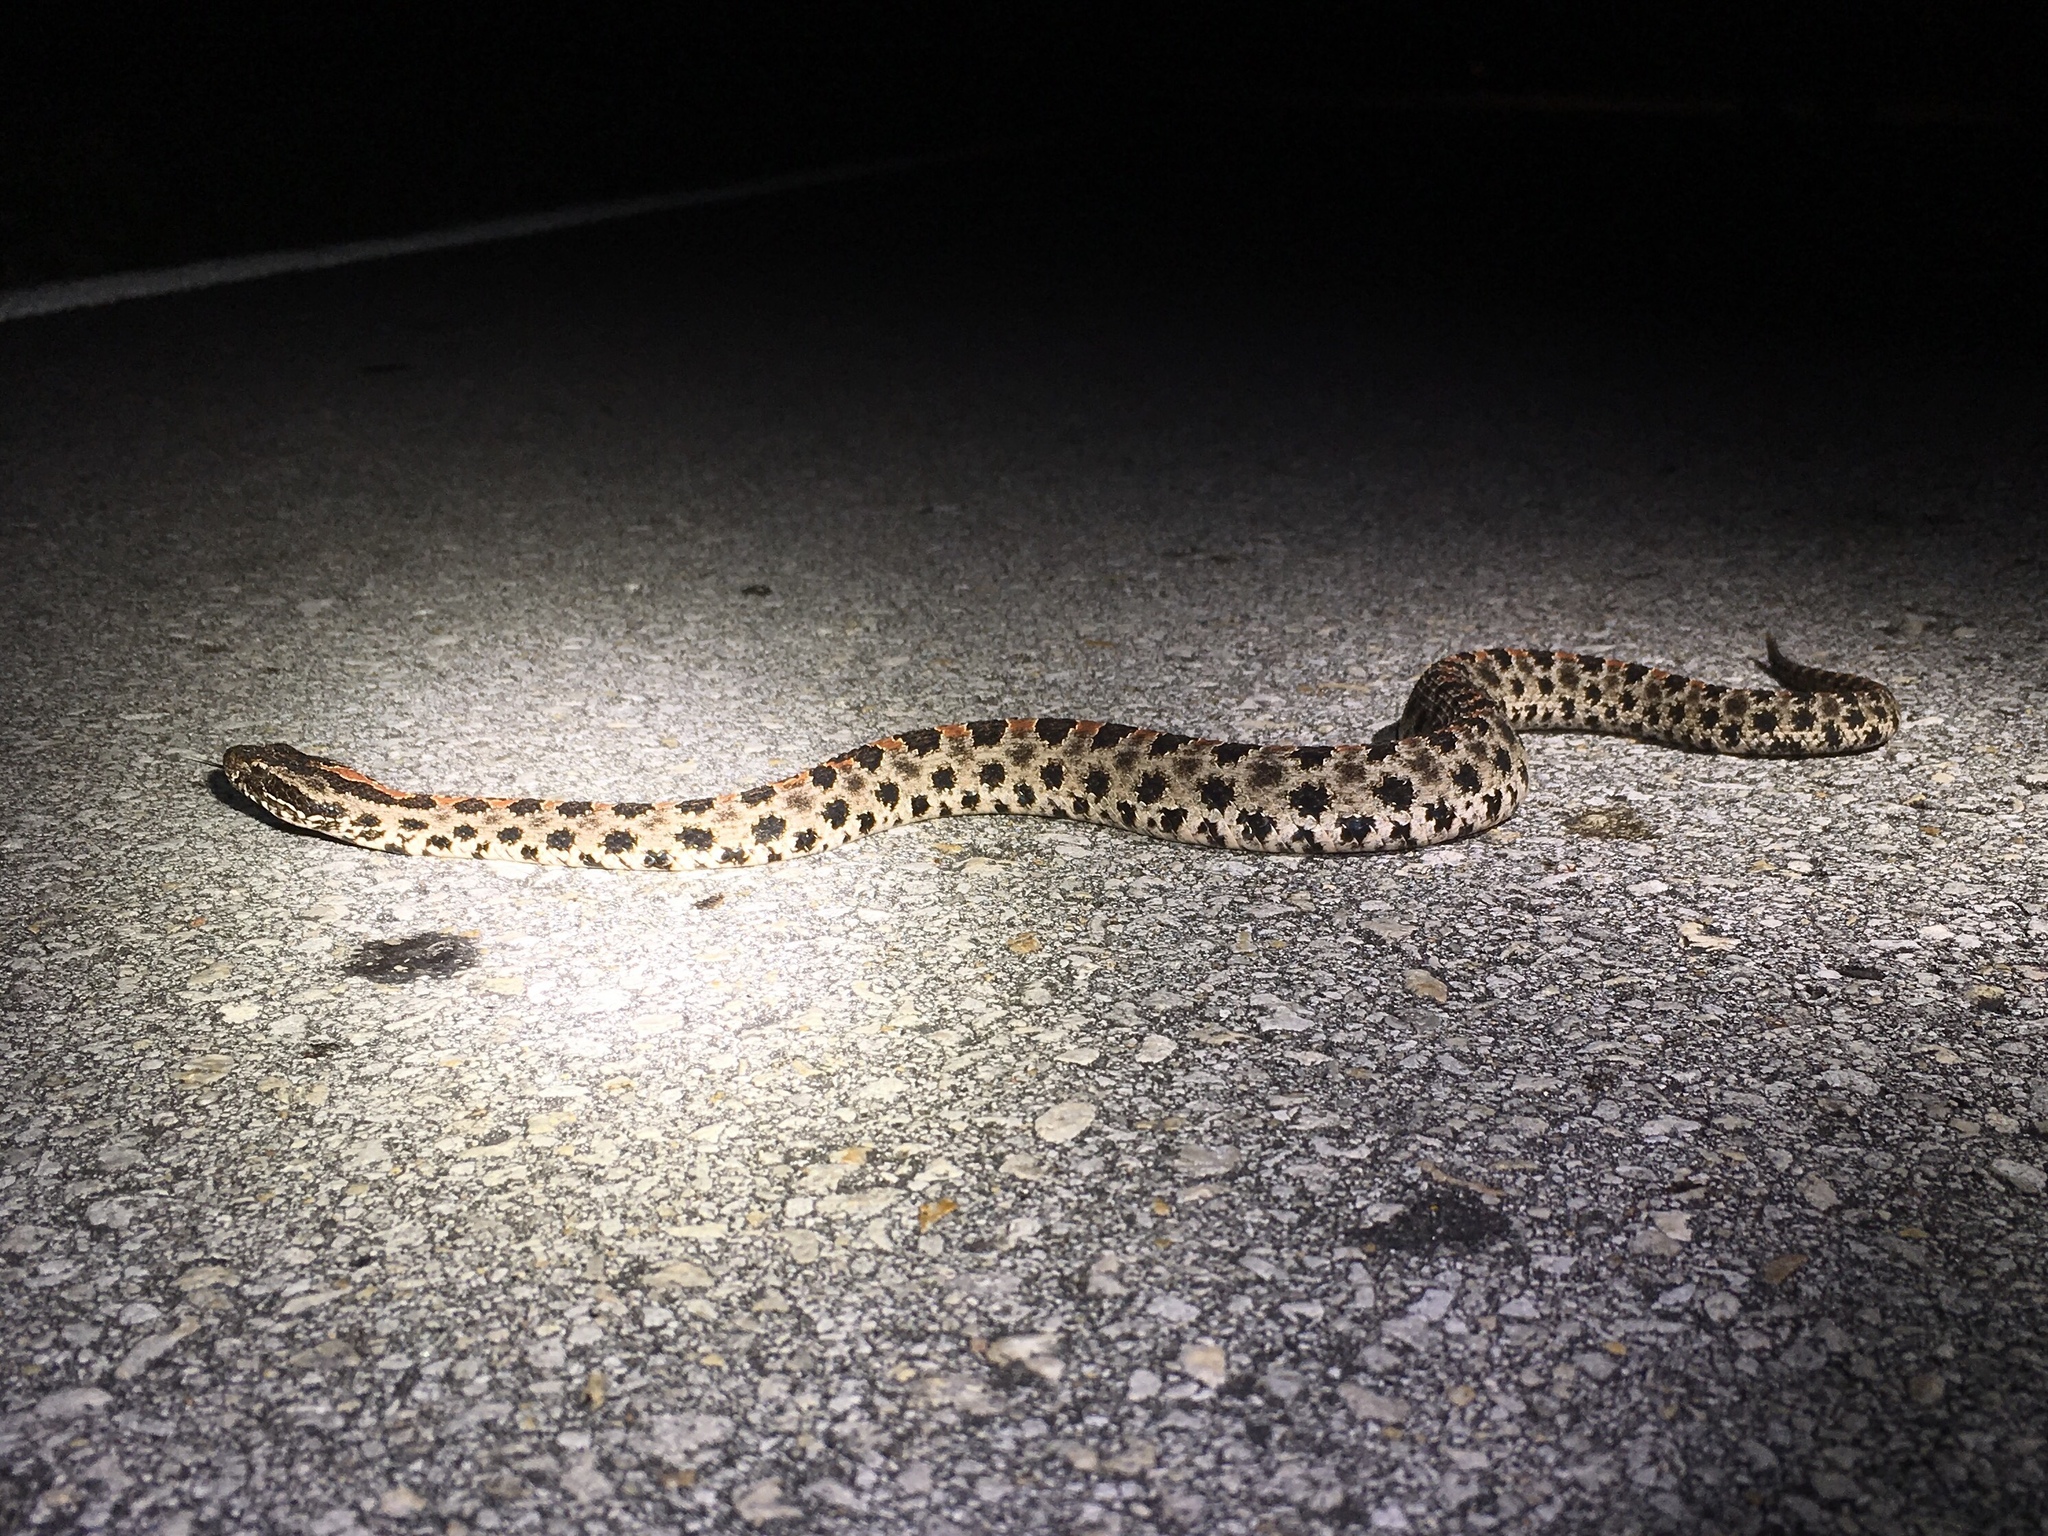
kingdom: Animalia
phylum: Chordata
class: Squamata
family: Viperidae
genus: Sistrurus
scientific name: Sistrurus miliarius
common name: Pygmy rattlesnake
